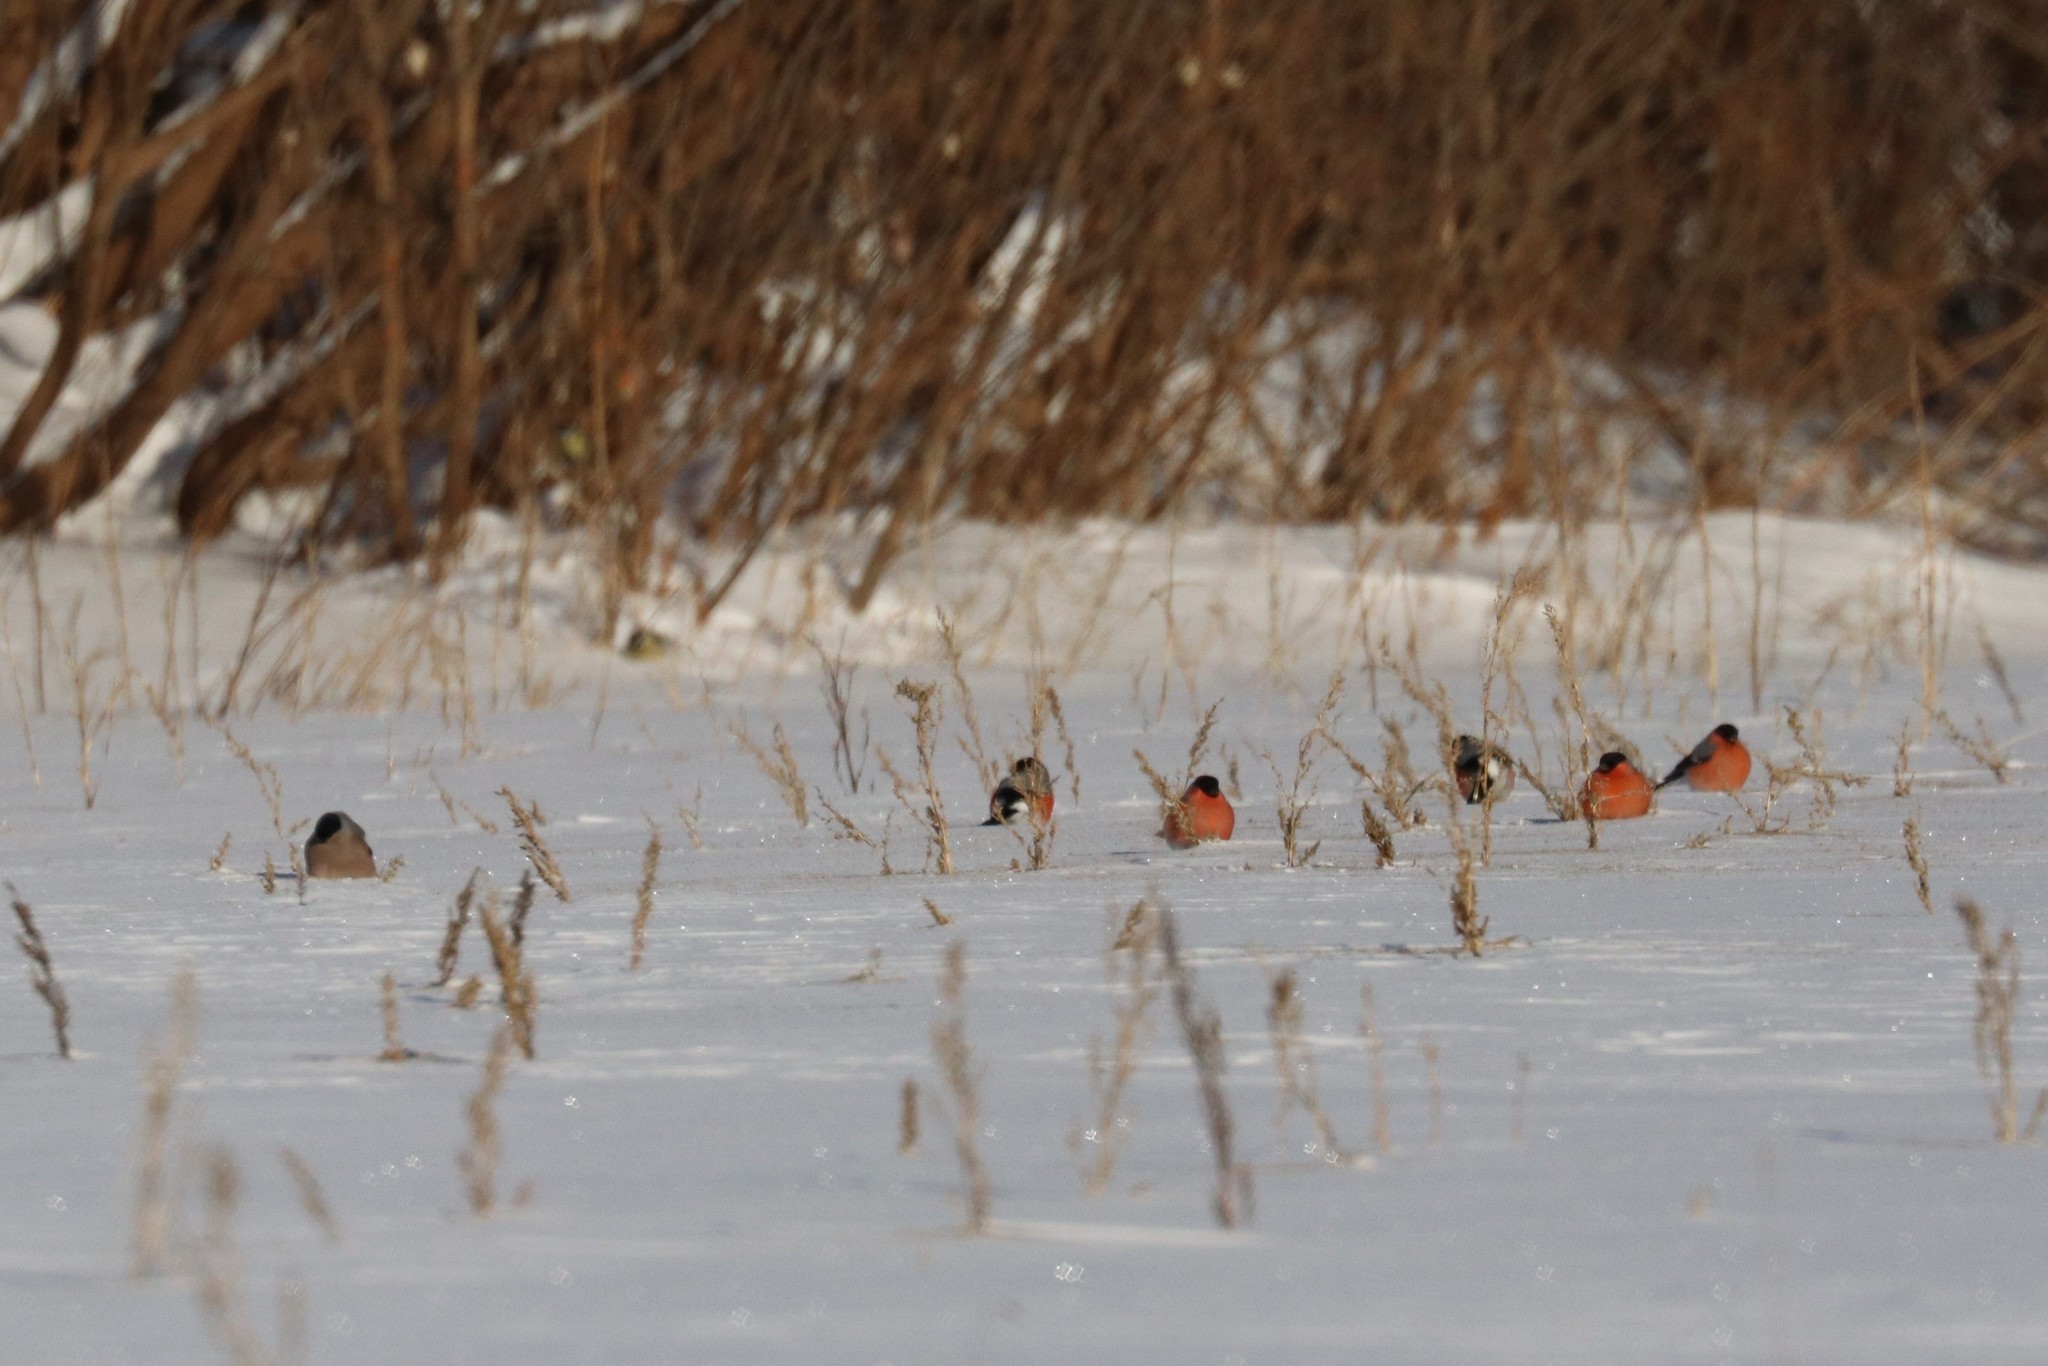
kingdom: Animalia
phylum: Chordata
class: Aves
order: Passeriformes
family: Fringillidae
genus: Pyrrhula
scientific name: Pyrrhula pyrrhula
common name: Eurasian bullfinch
